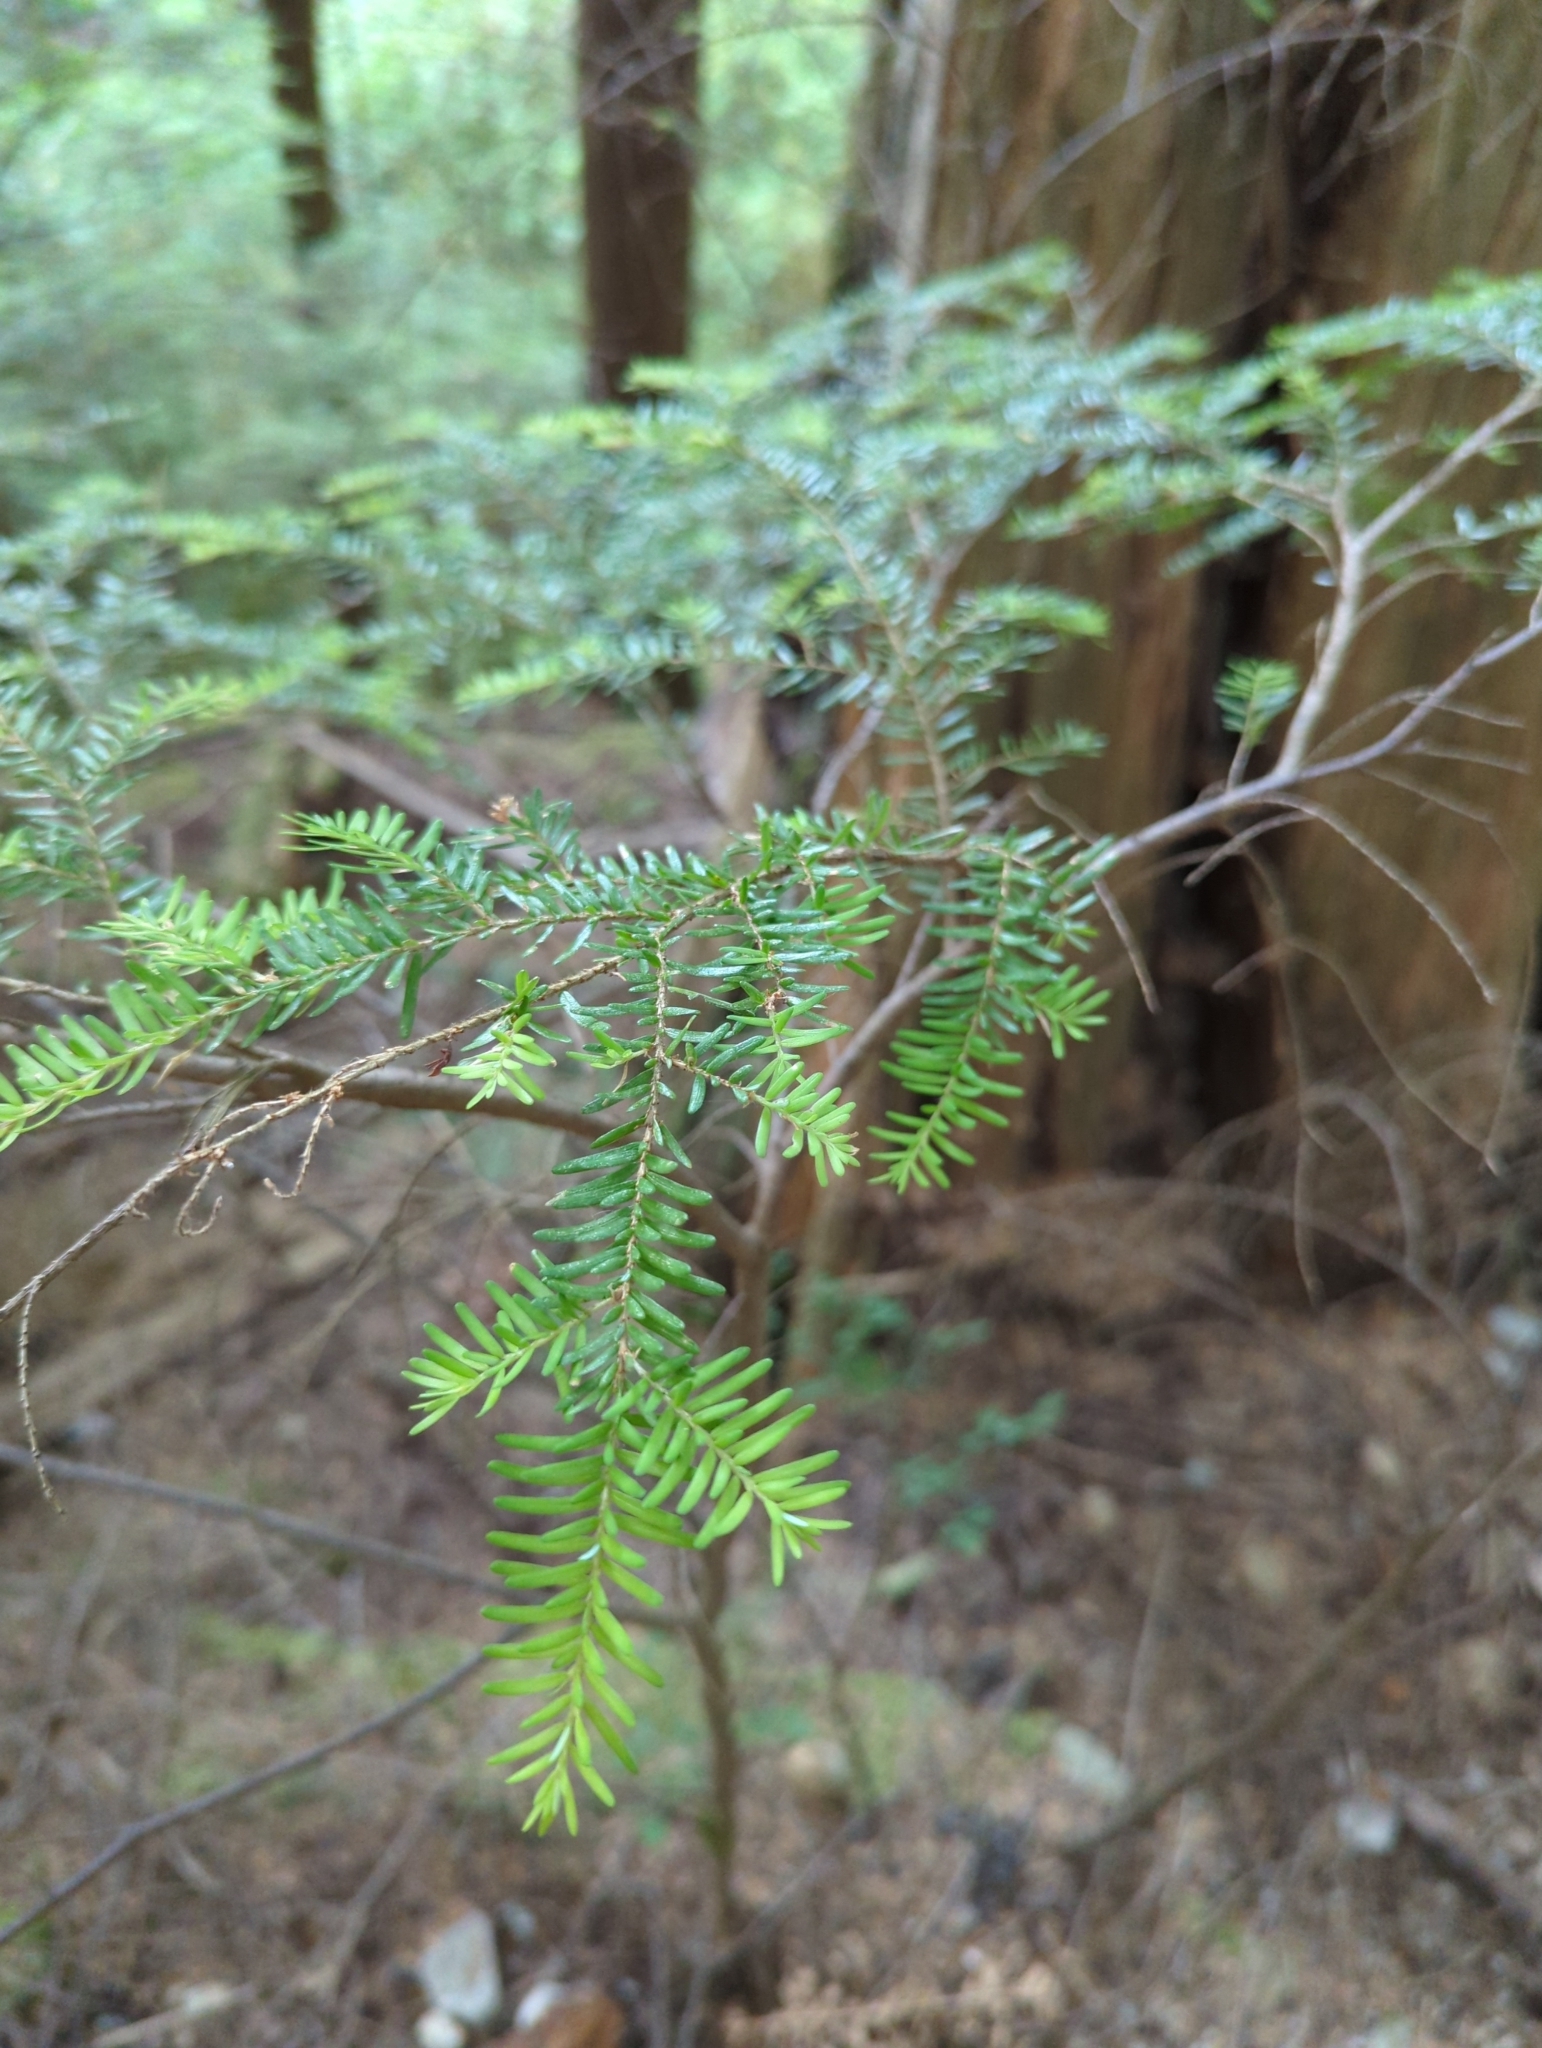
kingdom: Plantae
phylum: Tracheophyta
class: Pinopsida
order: Pinales
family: Pinaceae
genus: Tsuga
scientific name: Tsuga heterophylla
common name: Western hemlock
